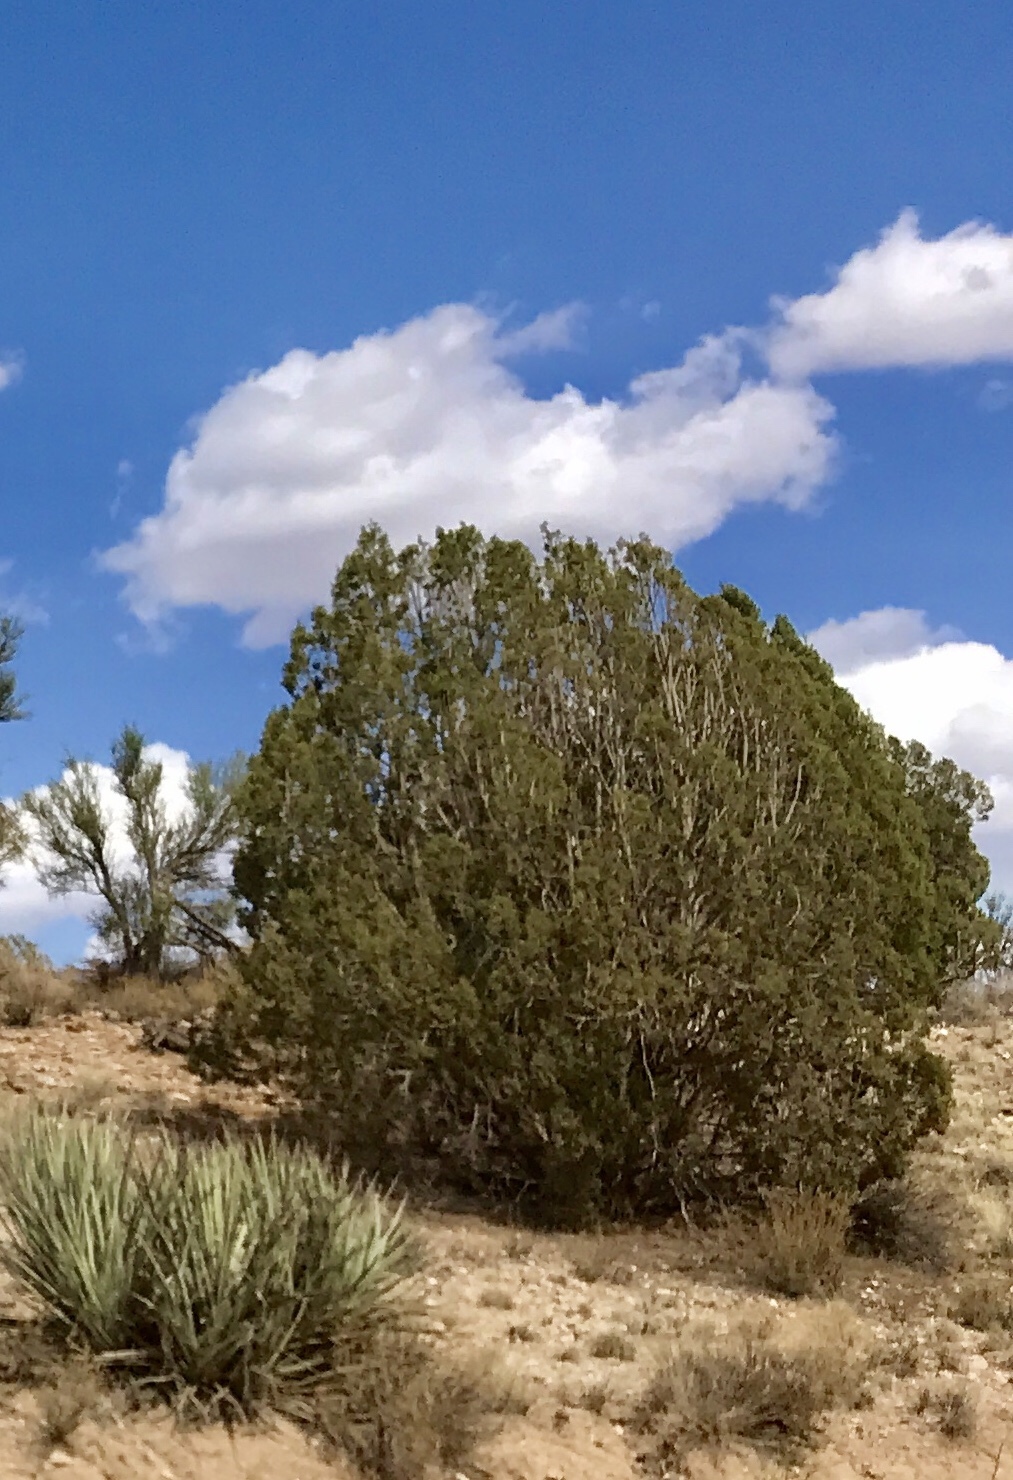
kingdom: Plantae
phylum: Tracheophyta
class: Pinopsida
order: Pinales
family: Cupressaceae
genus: Juniperus
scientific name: Juniperus osteosperma
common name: Utah juniper
